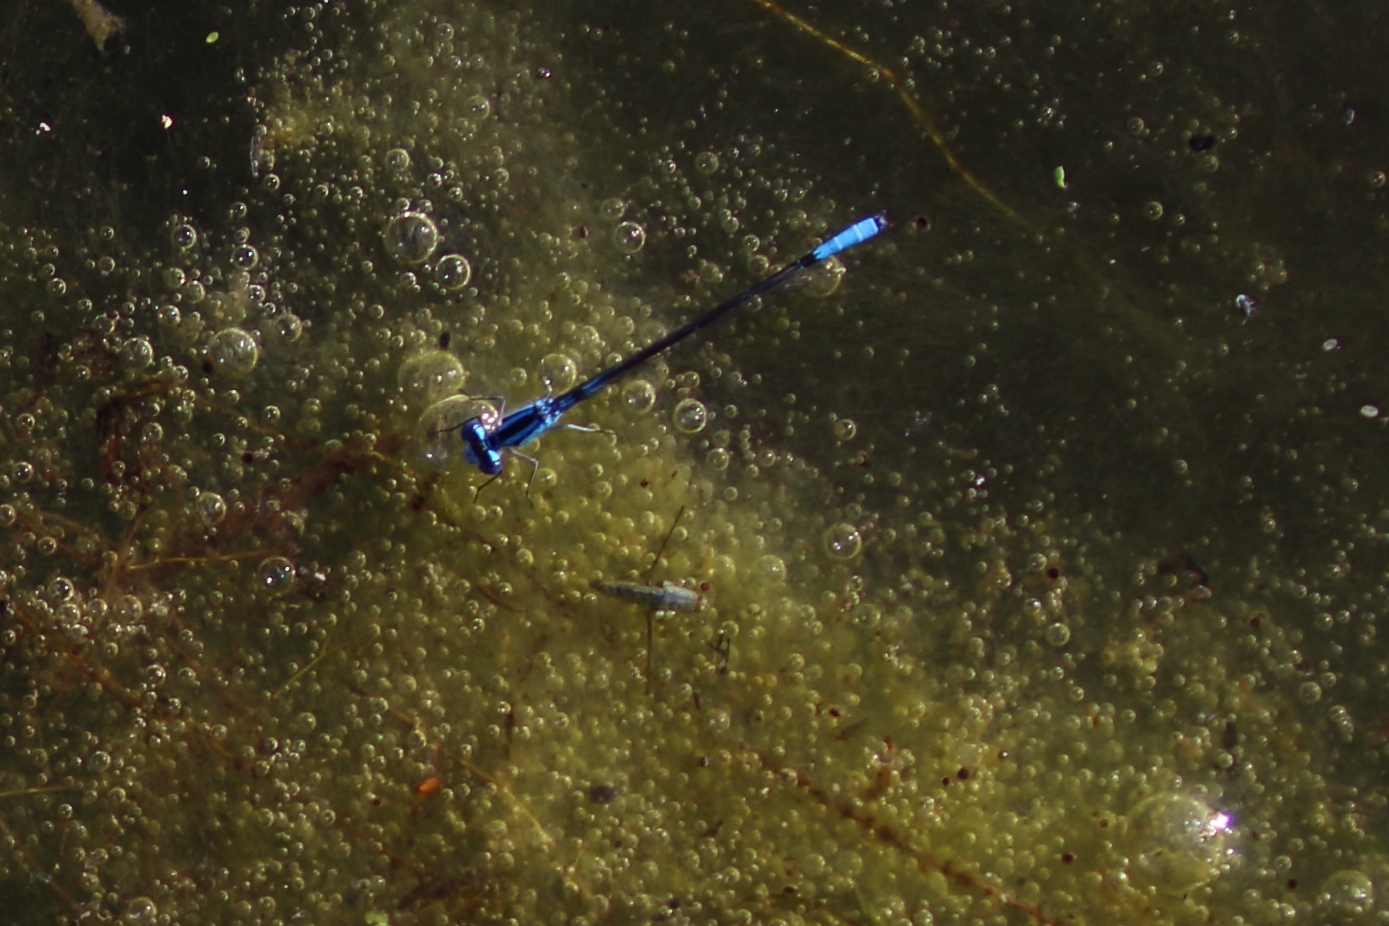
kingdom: Animalia
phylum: Arthropoda
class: Insecta
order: Odonata
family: Coenagrionidae
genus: Enallagma
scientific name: Enallagma aspersum
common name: Azure bluet
